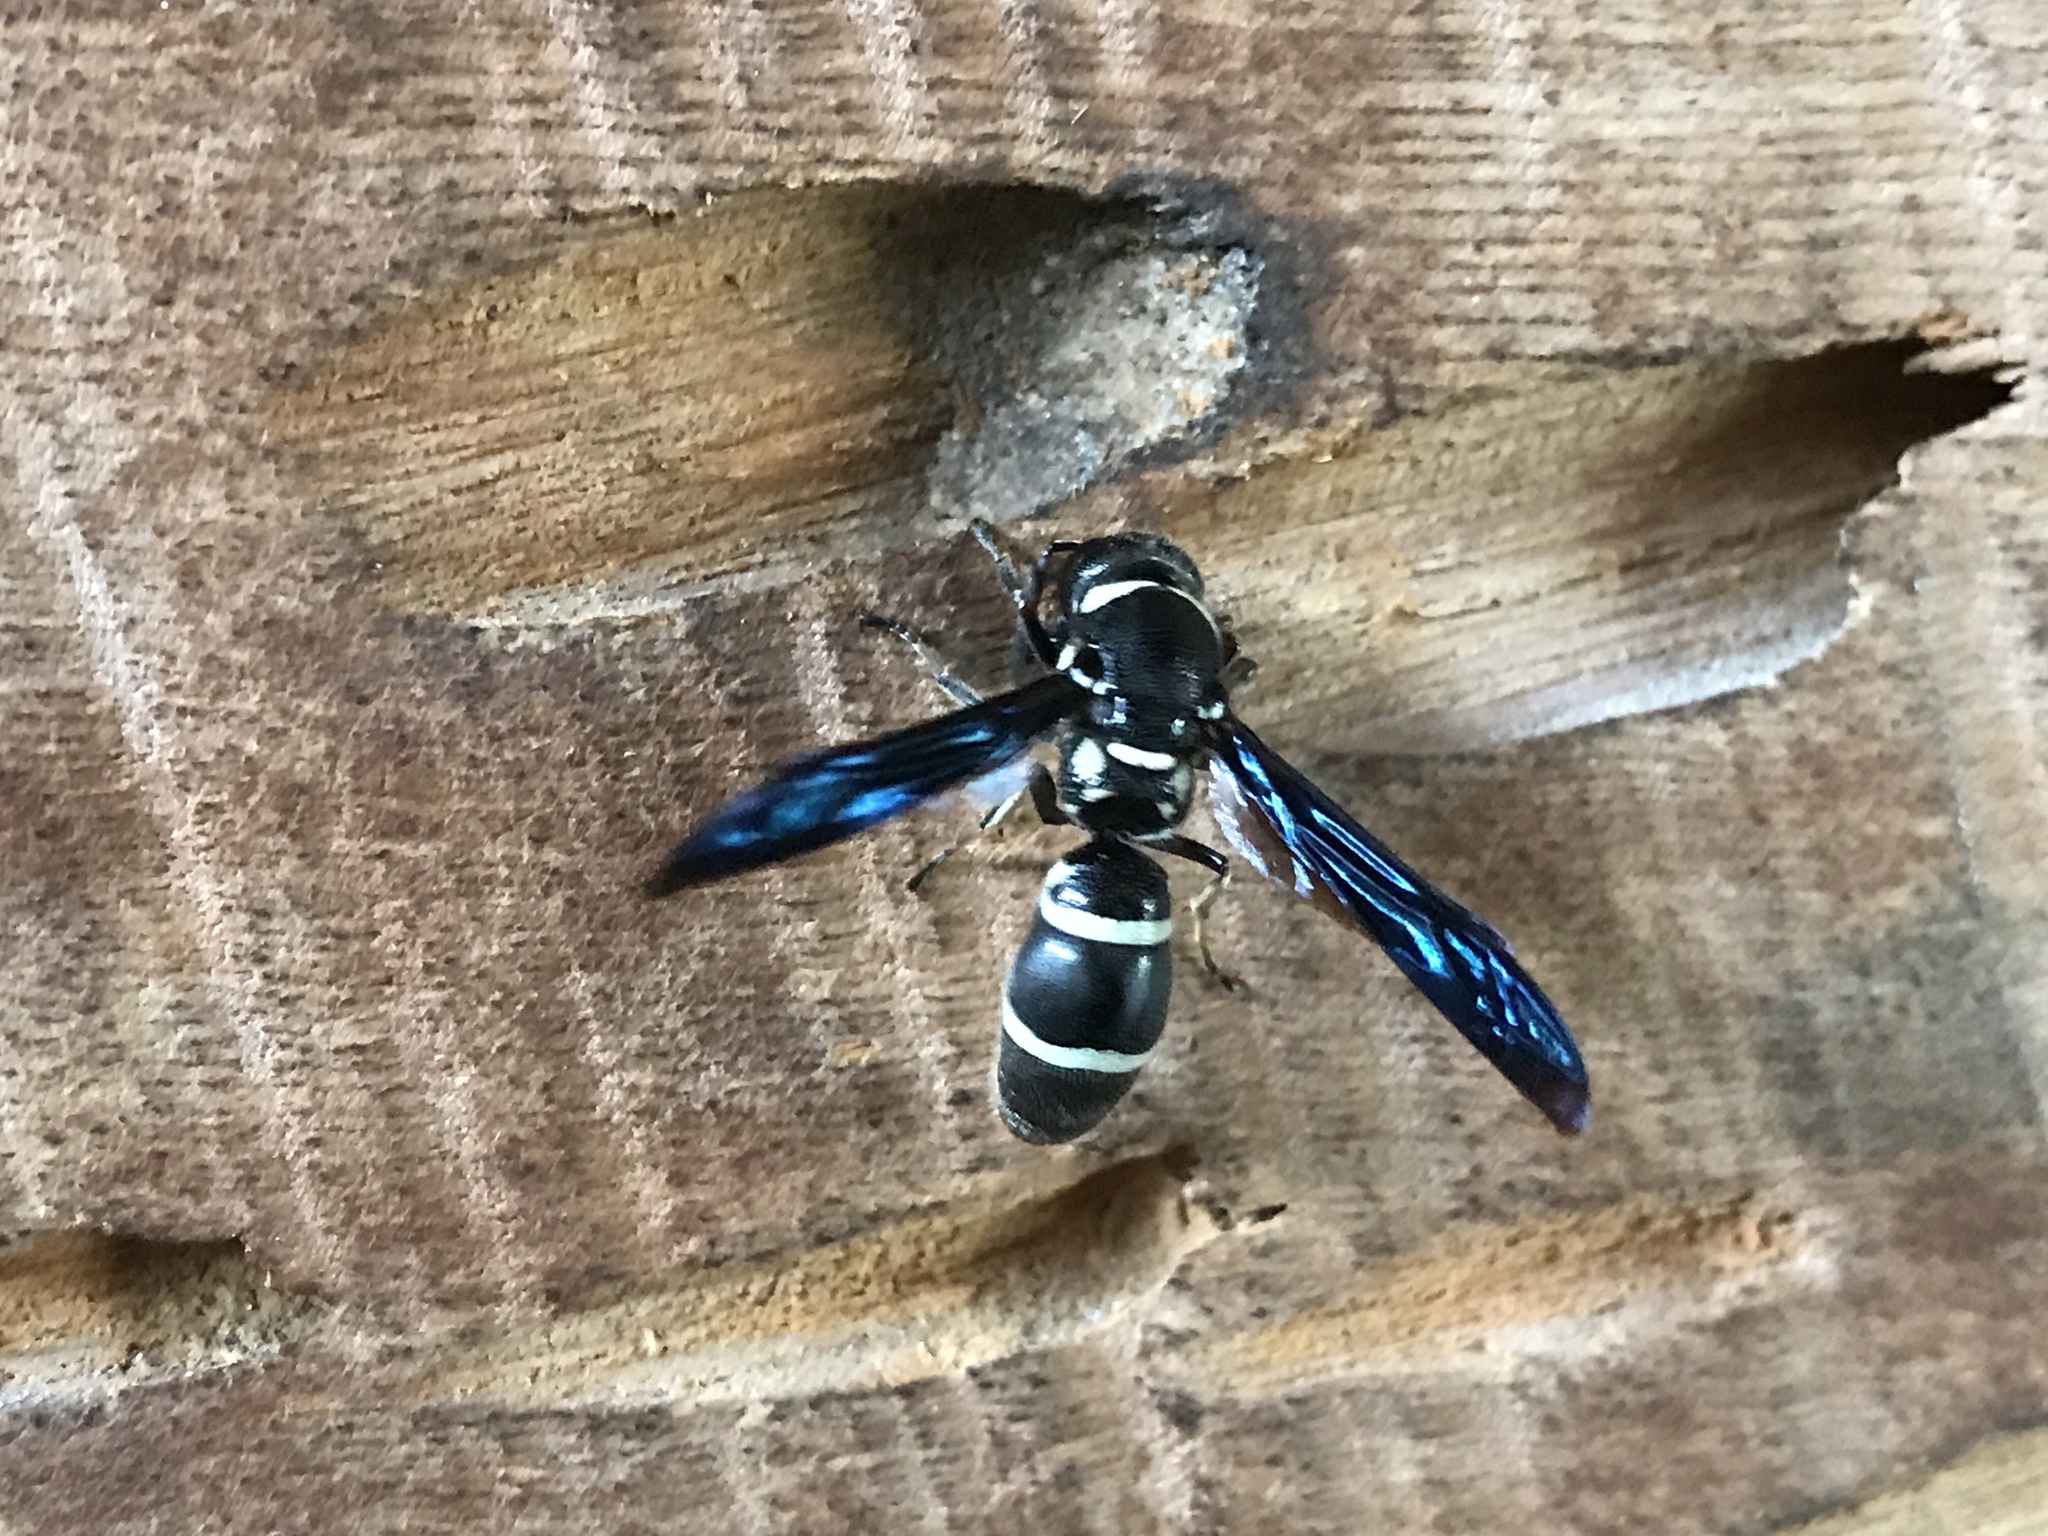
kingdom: Animalia
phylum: Arthropoda
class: Insecta
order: Hymenoptera
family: Eumenidae
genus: Pseudodynerus
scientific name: Pseudodynerus quadrisectus
